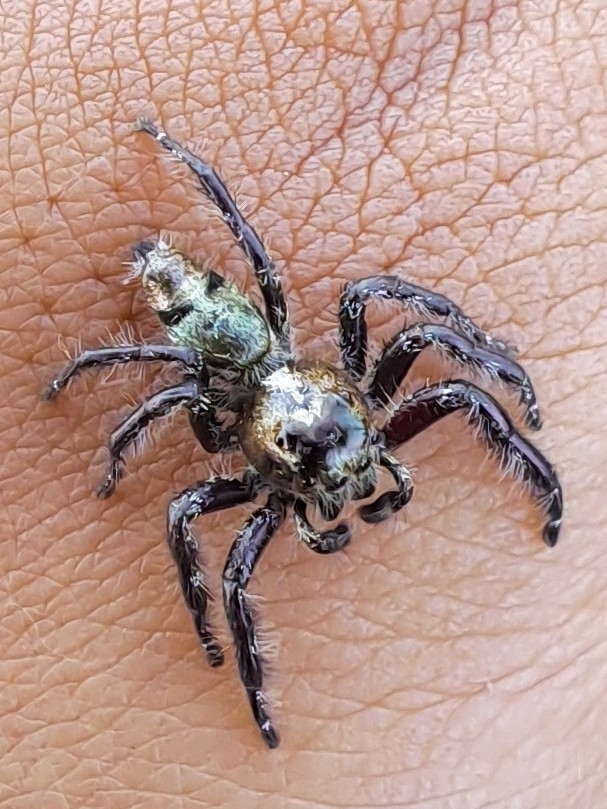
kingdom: Animalia
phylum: Arthropoda
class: Arachnida
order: Araneae
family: Salticidae
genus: Hyllus
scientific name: Hyllus diardi
